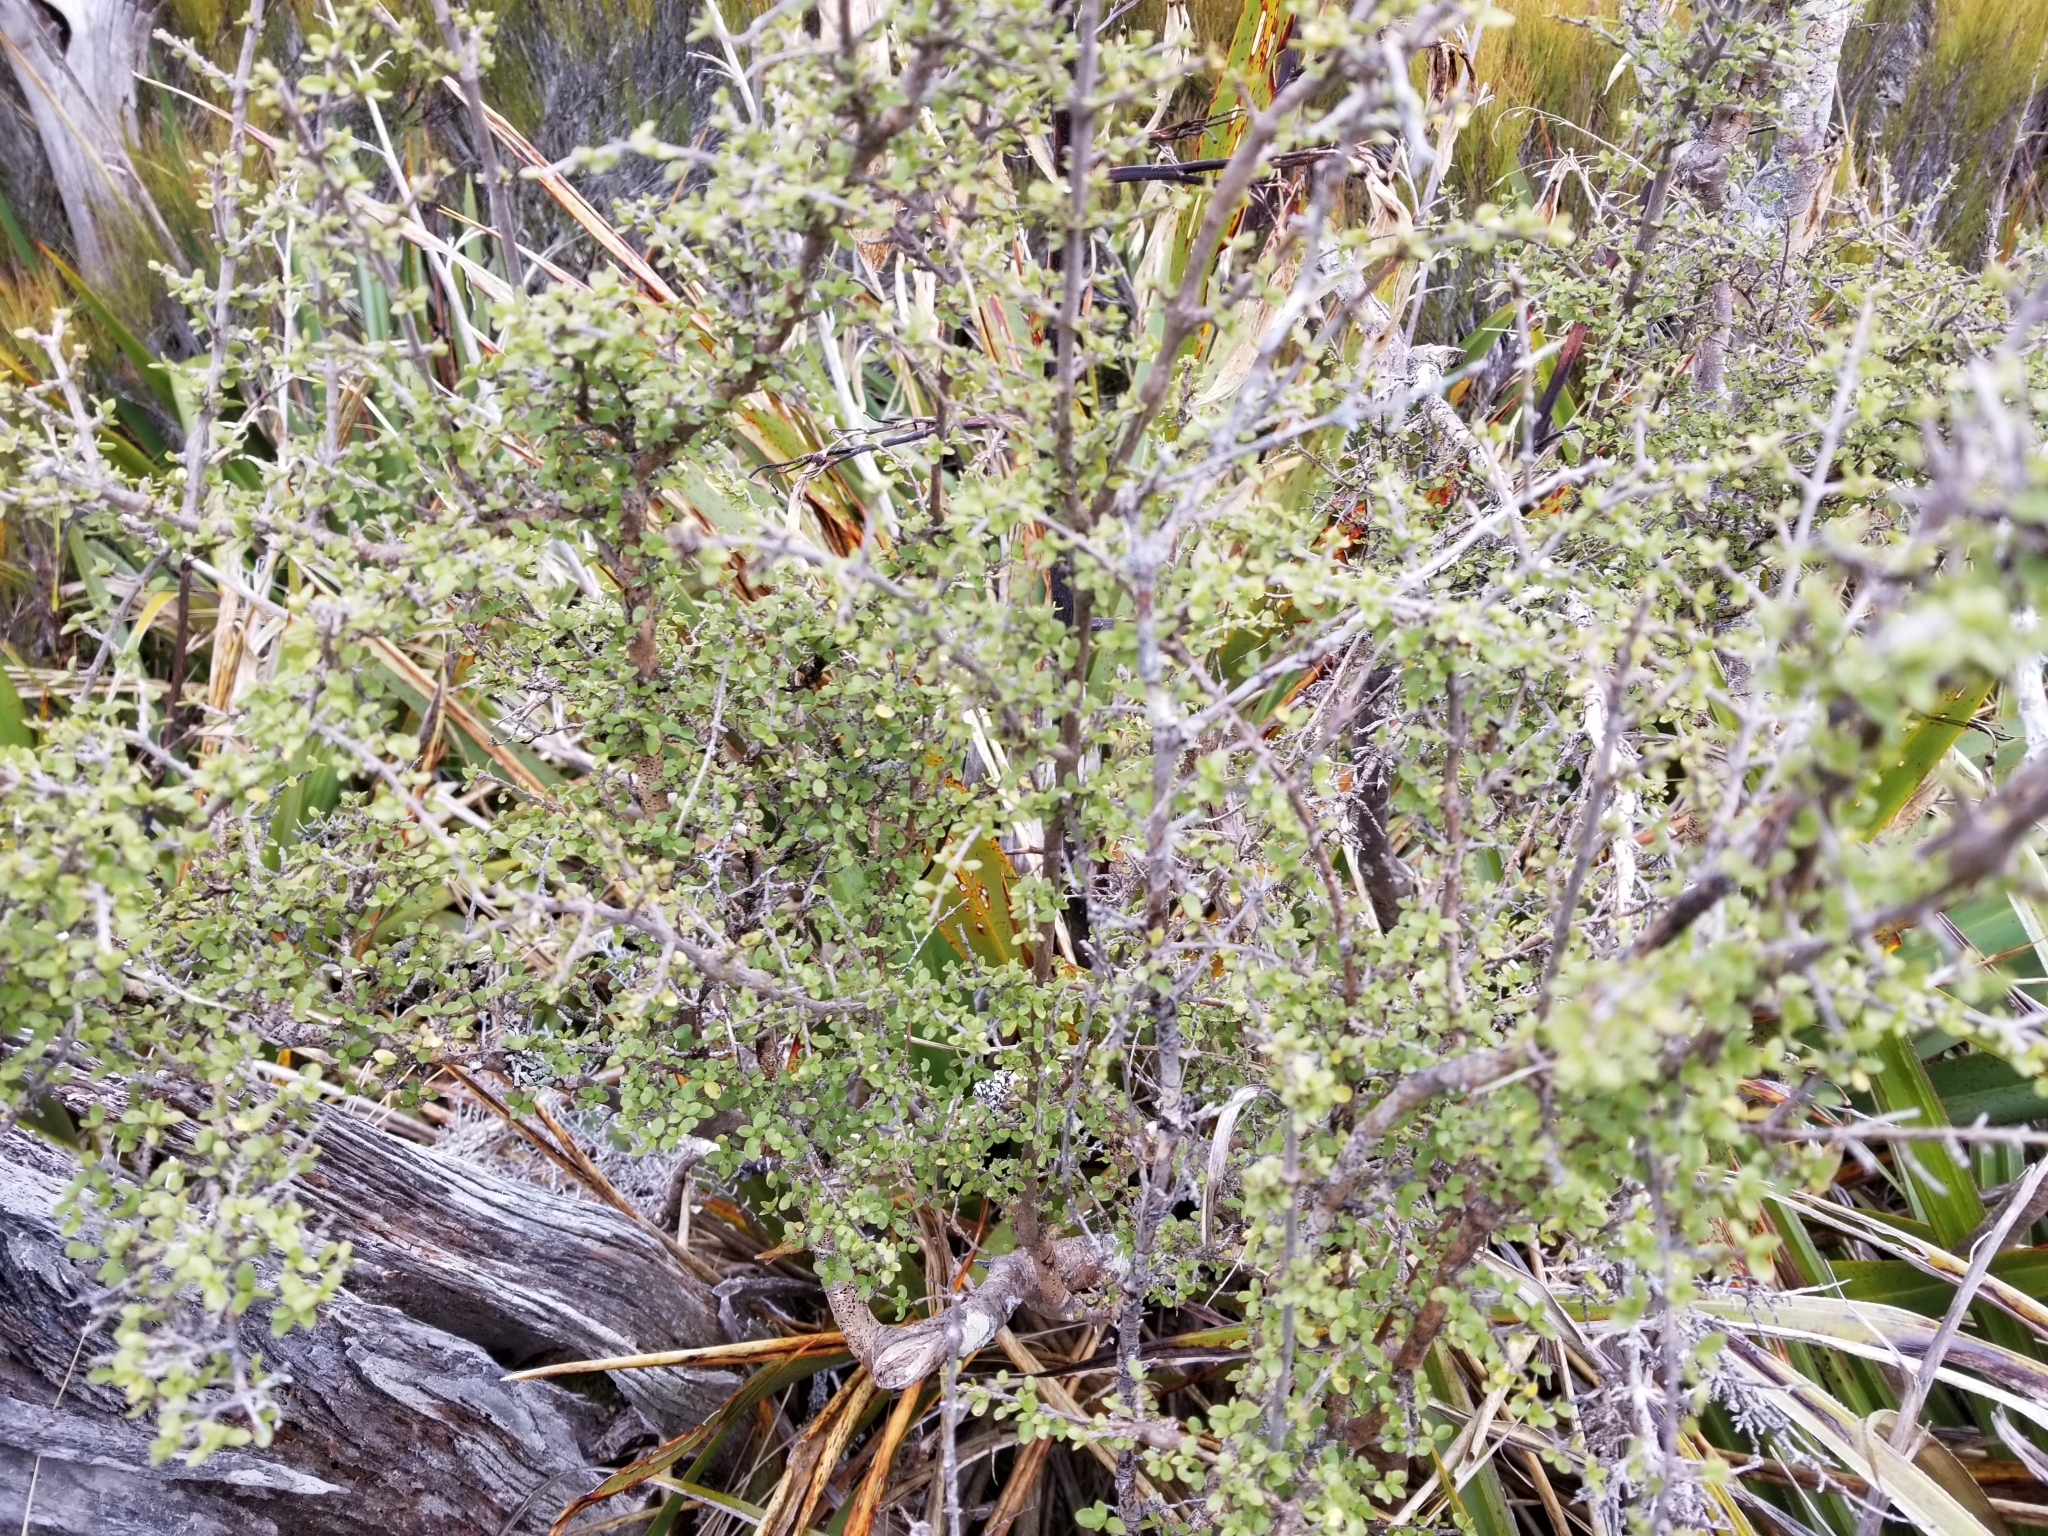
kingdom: Plantae
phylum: Tracheophyta
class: Magnoliopsida
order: Gentianales
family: Rubiaceae
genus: Coprosma
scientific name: Coprosma dumosa
